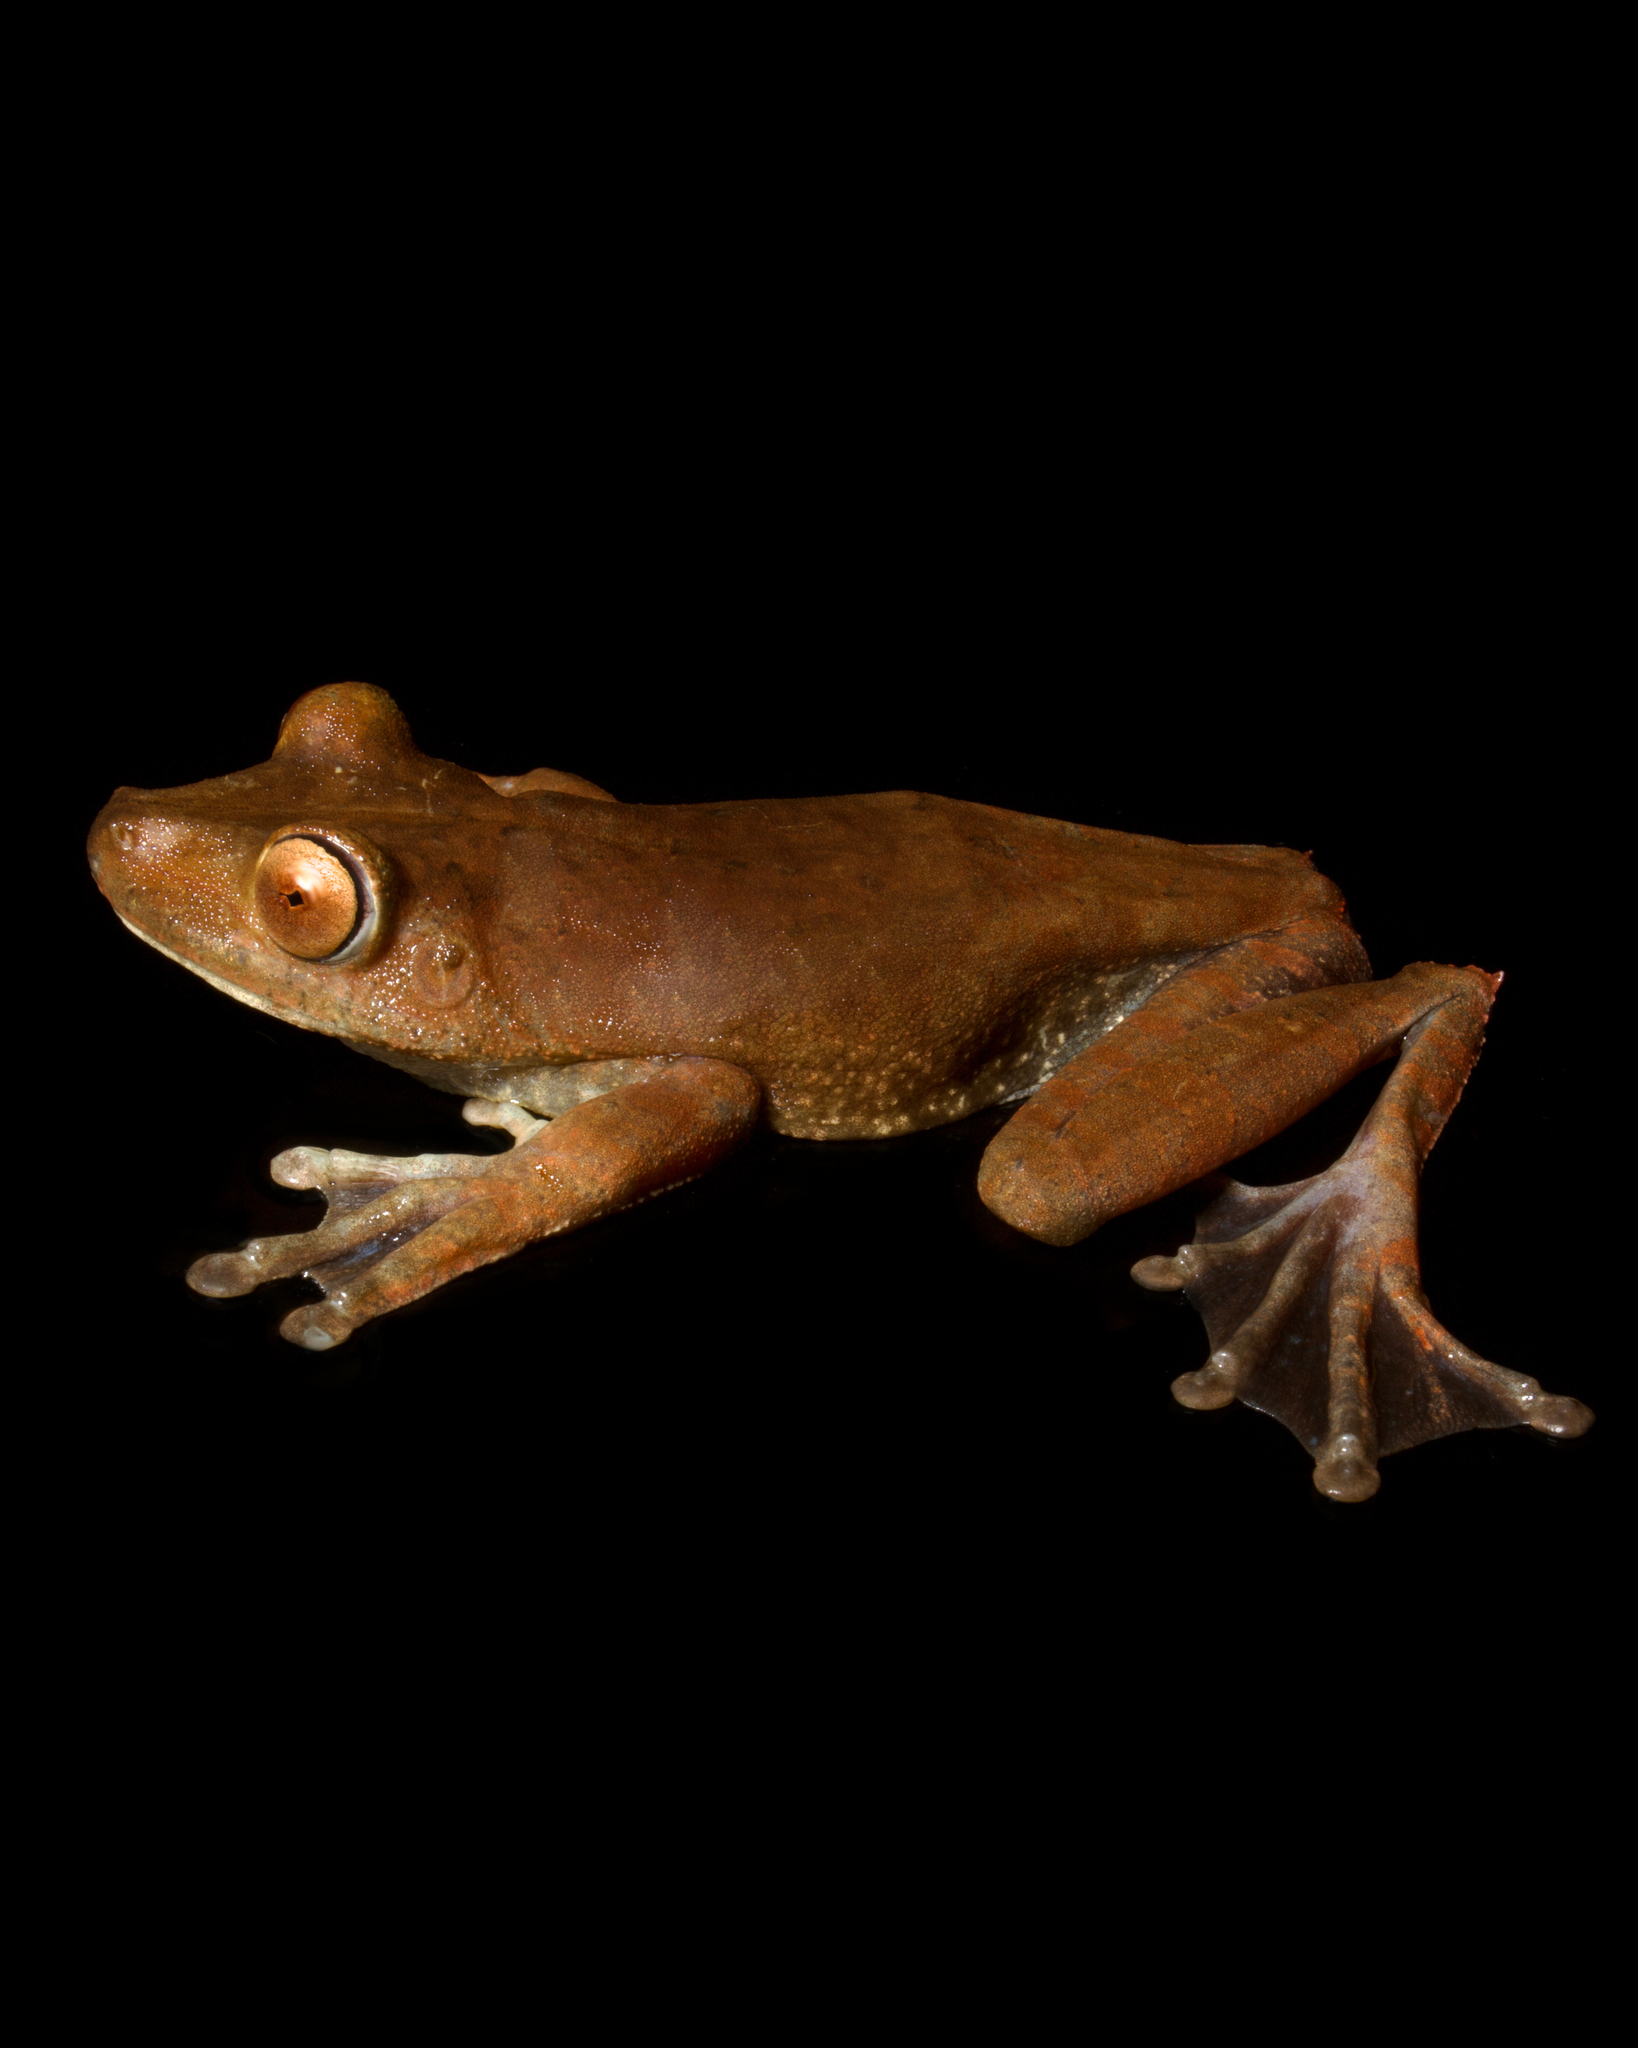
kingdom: Animalia
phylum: Chordata
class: Amphibia
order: Anura
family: Hylidae
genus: Boana
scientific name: Boana boans
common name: Giant gladiator treefrog
